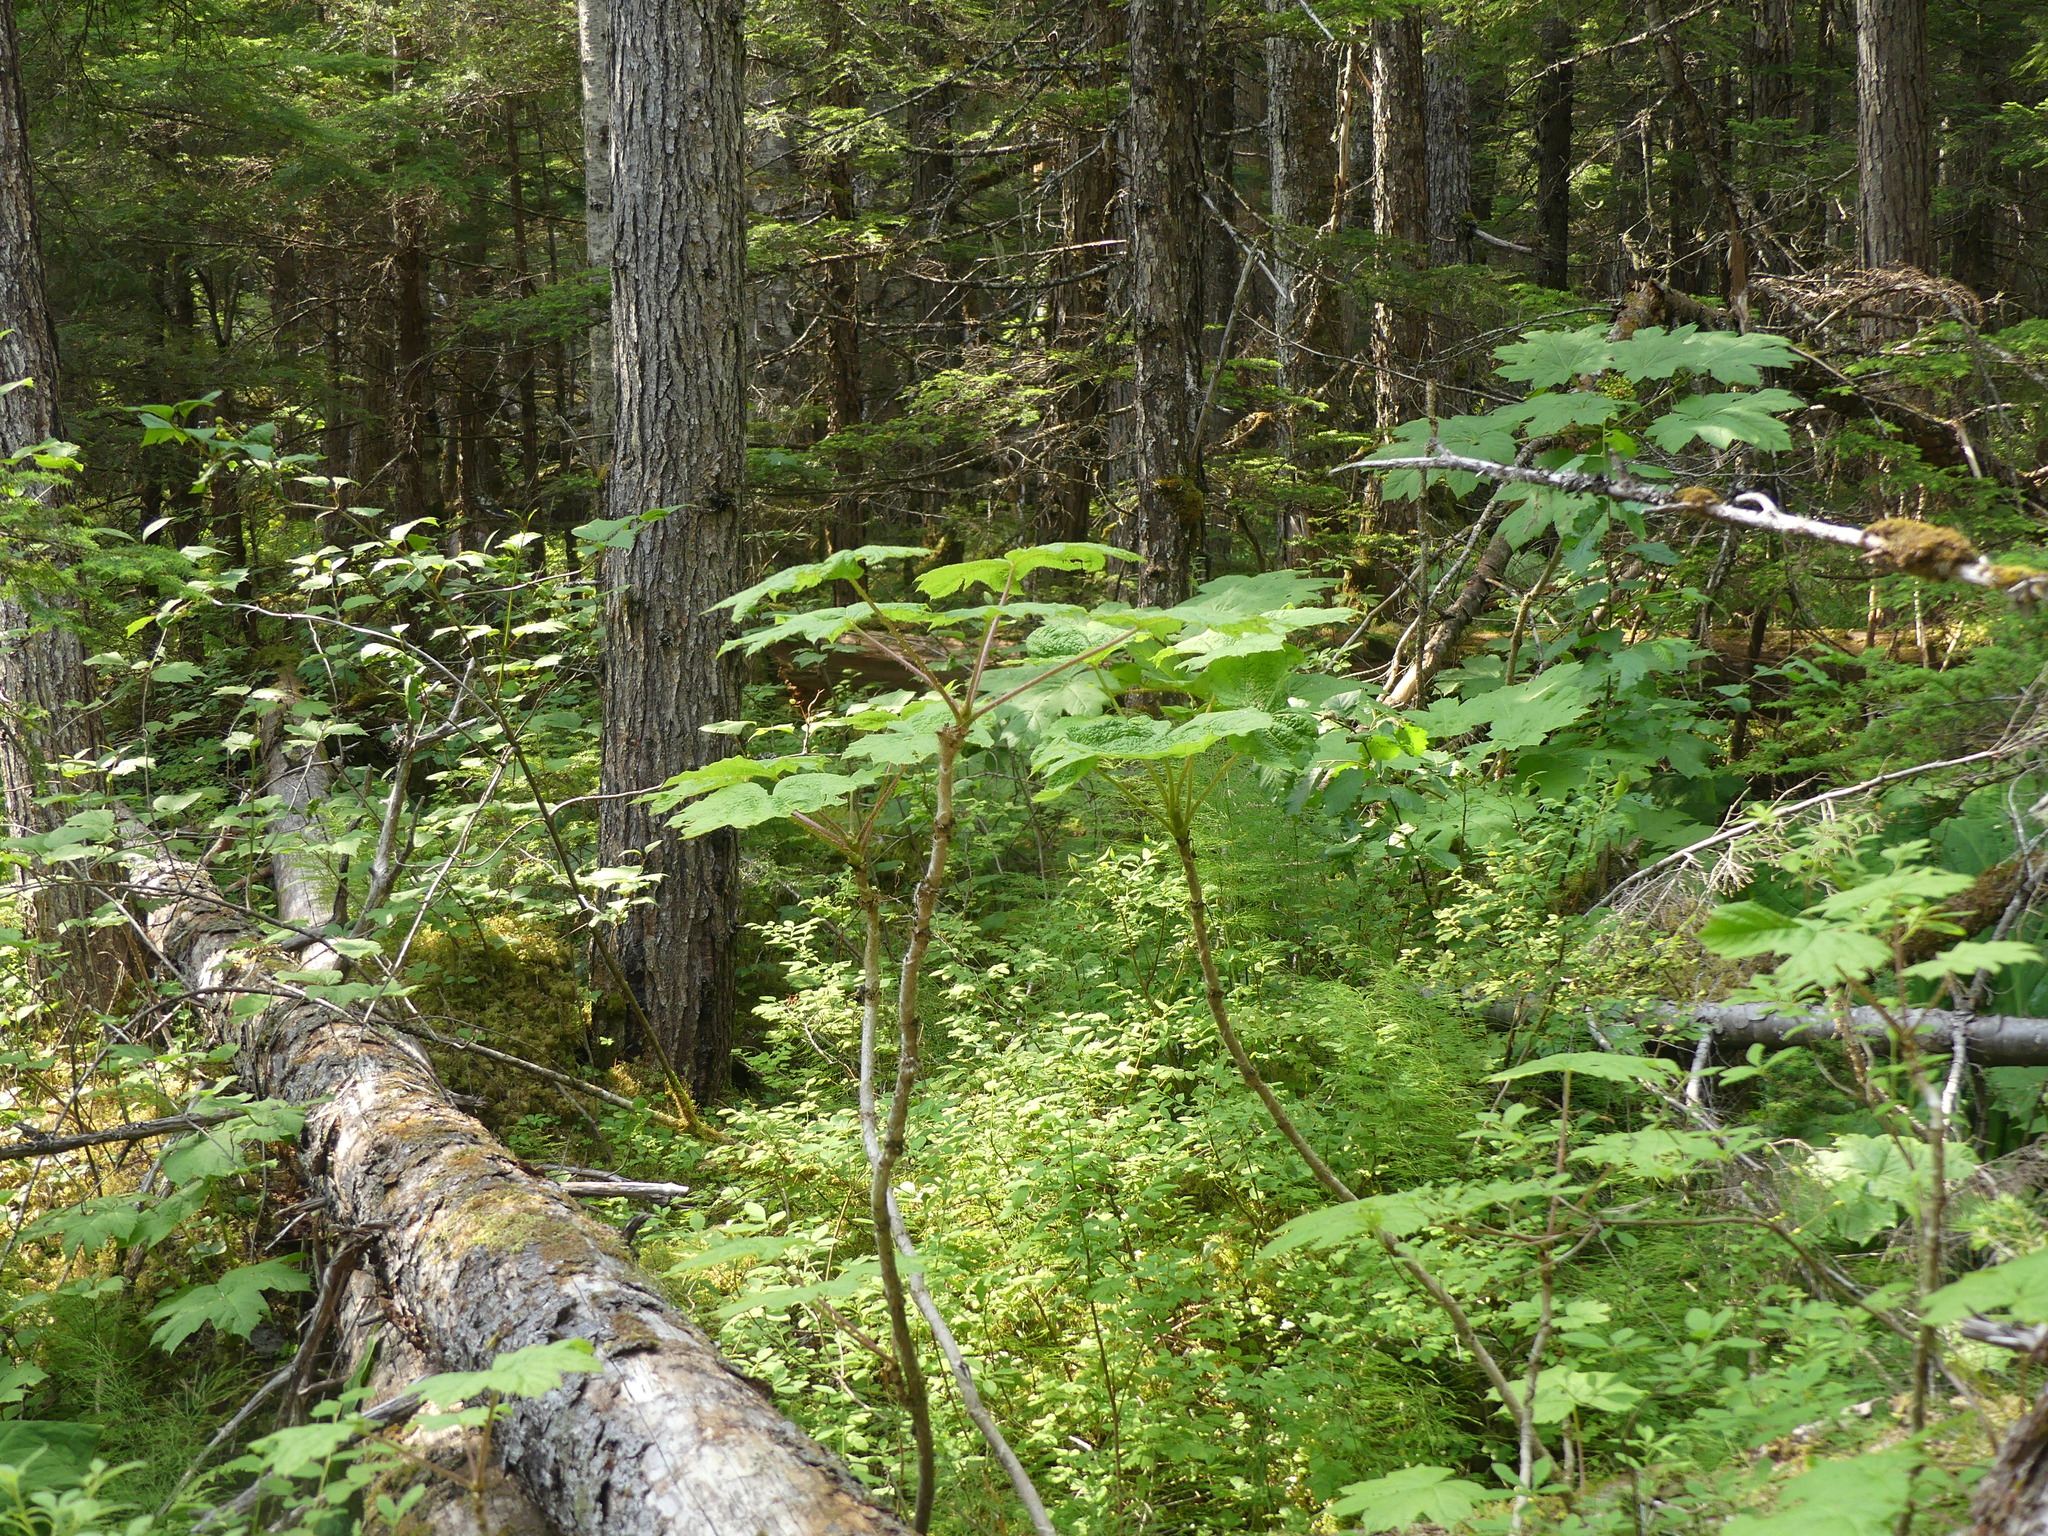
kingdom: Plantae
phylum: Tracheophyta
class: Magnoliopsida
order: Apiales
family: Araliaceae
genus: Oplopanax
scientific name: Oplopanax horridus
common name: Devil's walking-stick
